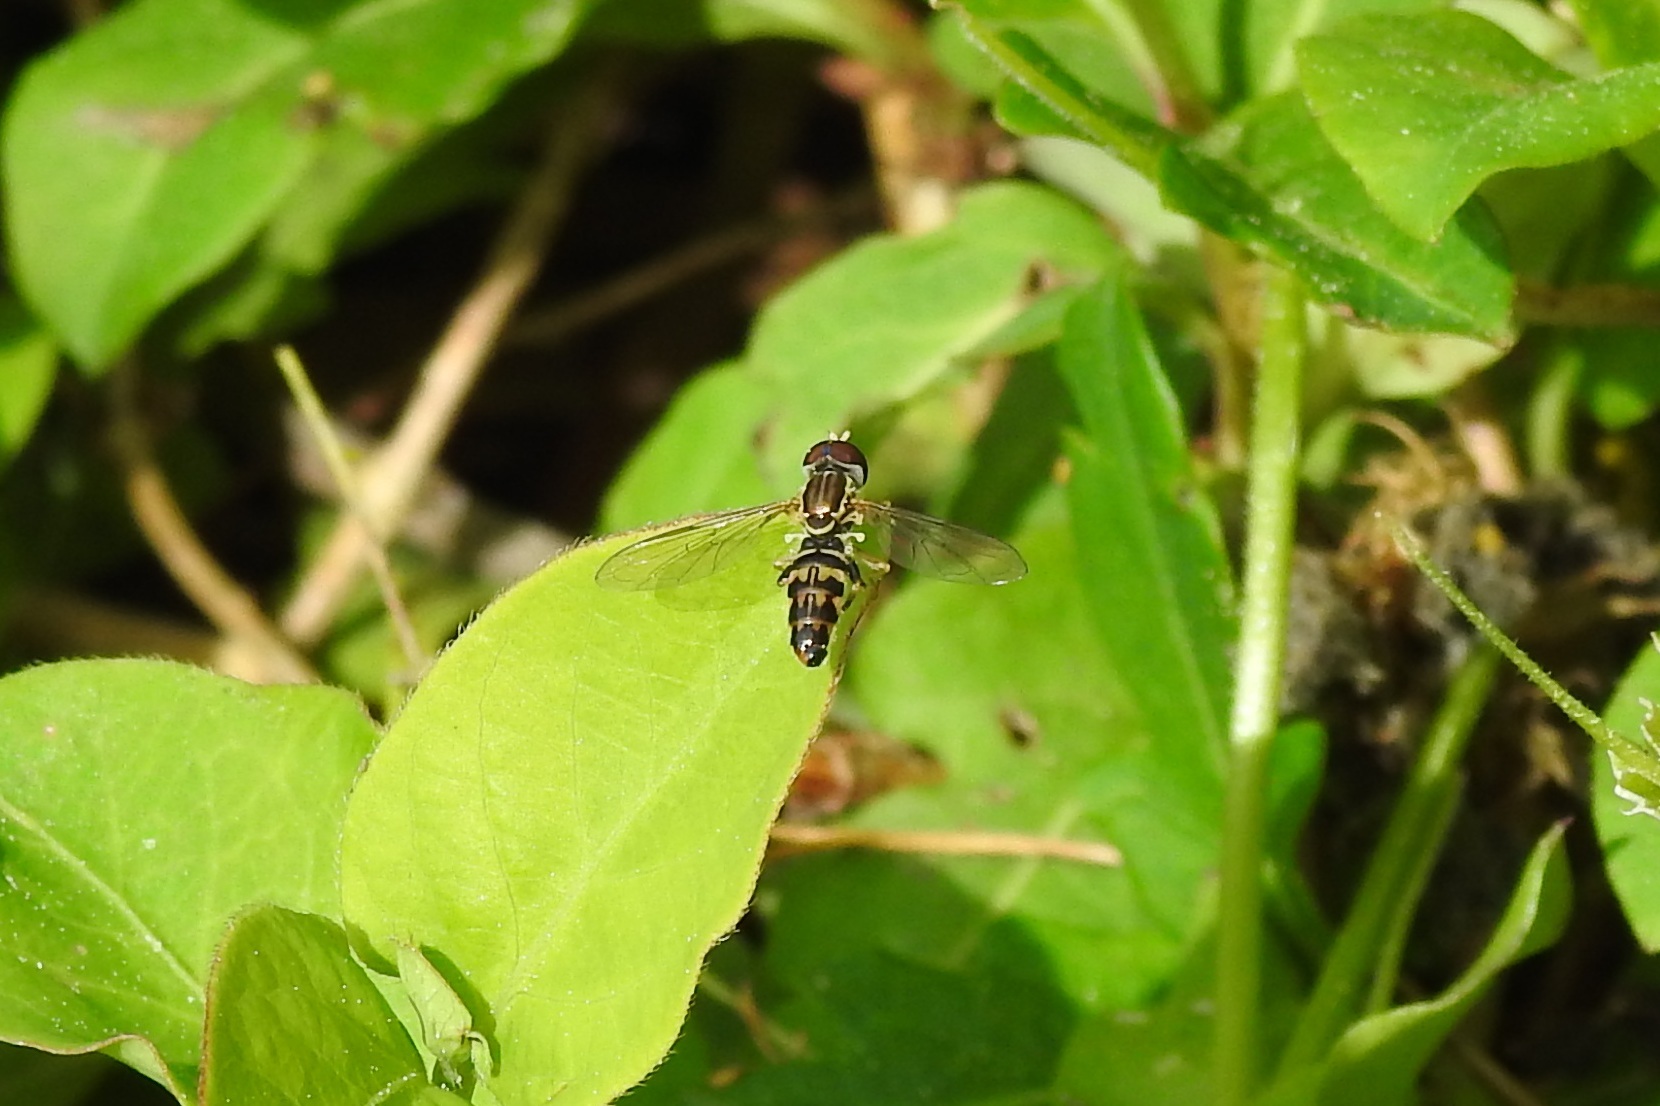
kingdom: Animalia
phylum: Arthropoda
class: Insecta
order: Diptera
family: Syrphidae
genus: Toxomerus
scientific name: Toxomerus geminatus
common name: Eastern calligrapher
